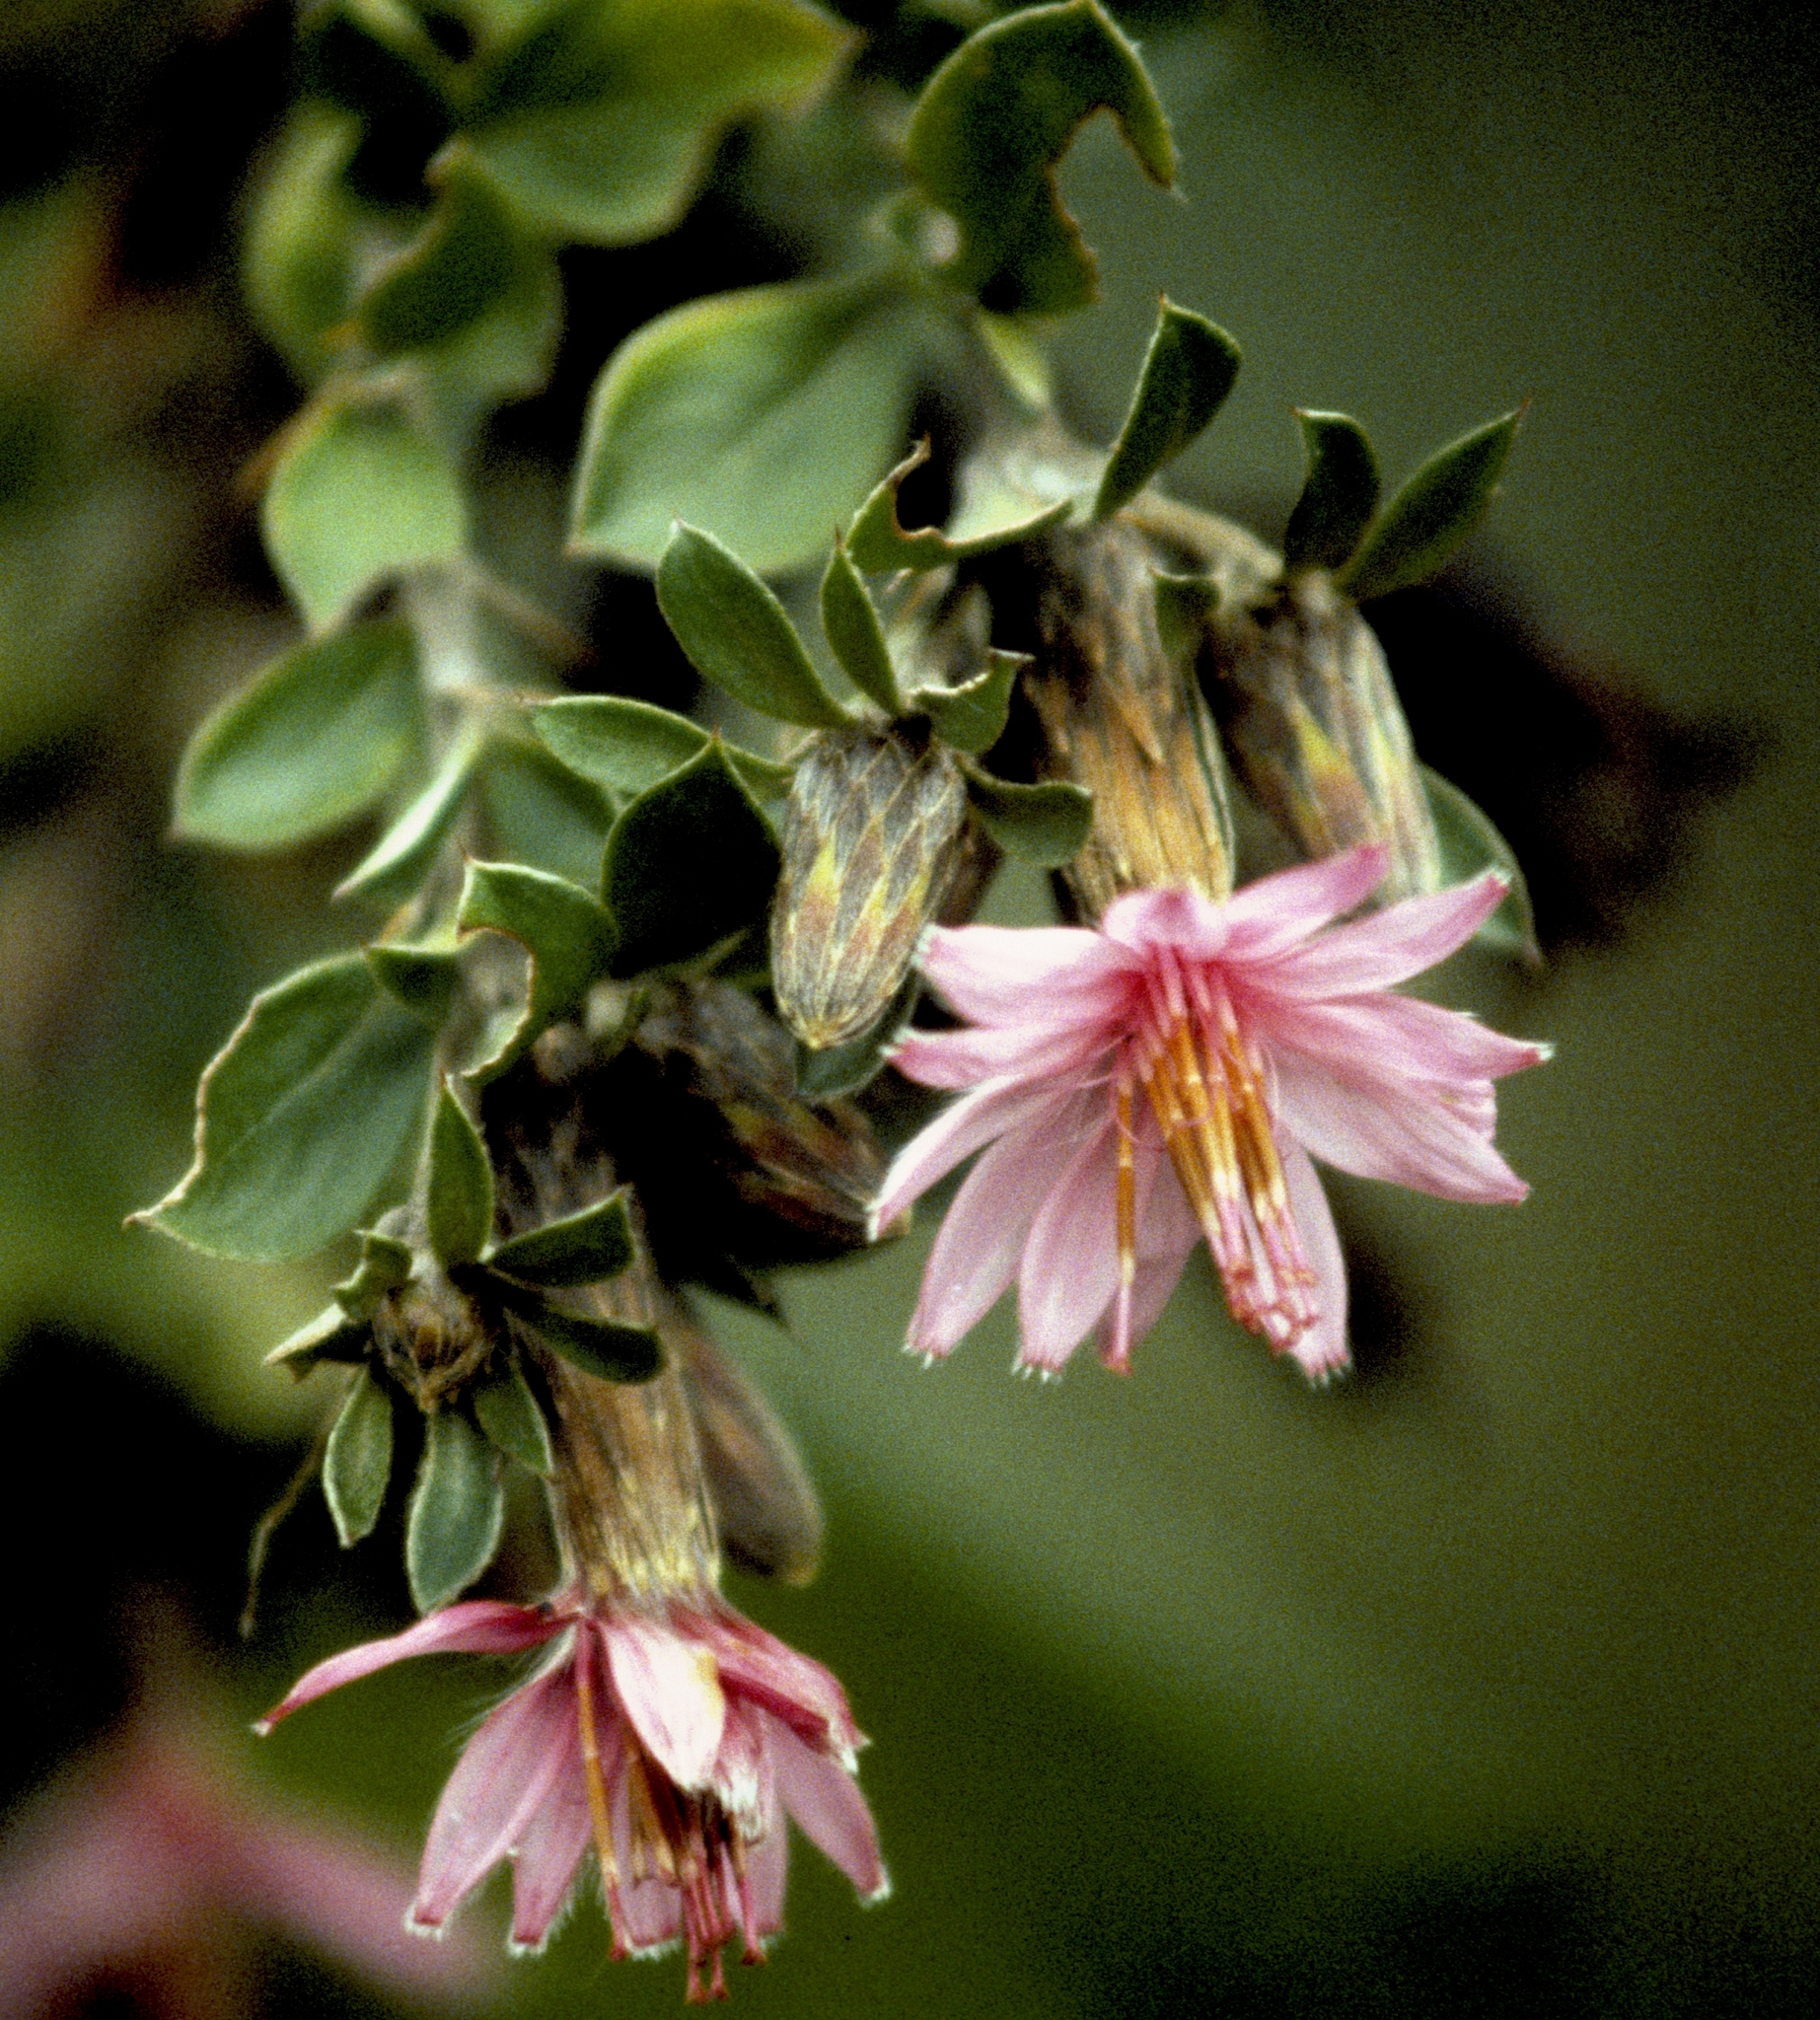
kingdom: Plantae
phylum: Tracheophyta
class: Magnoliopsida
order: Asterales
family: Asteraceae
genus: Barnadesia
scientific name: Barnadesia arborea
